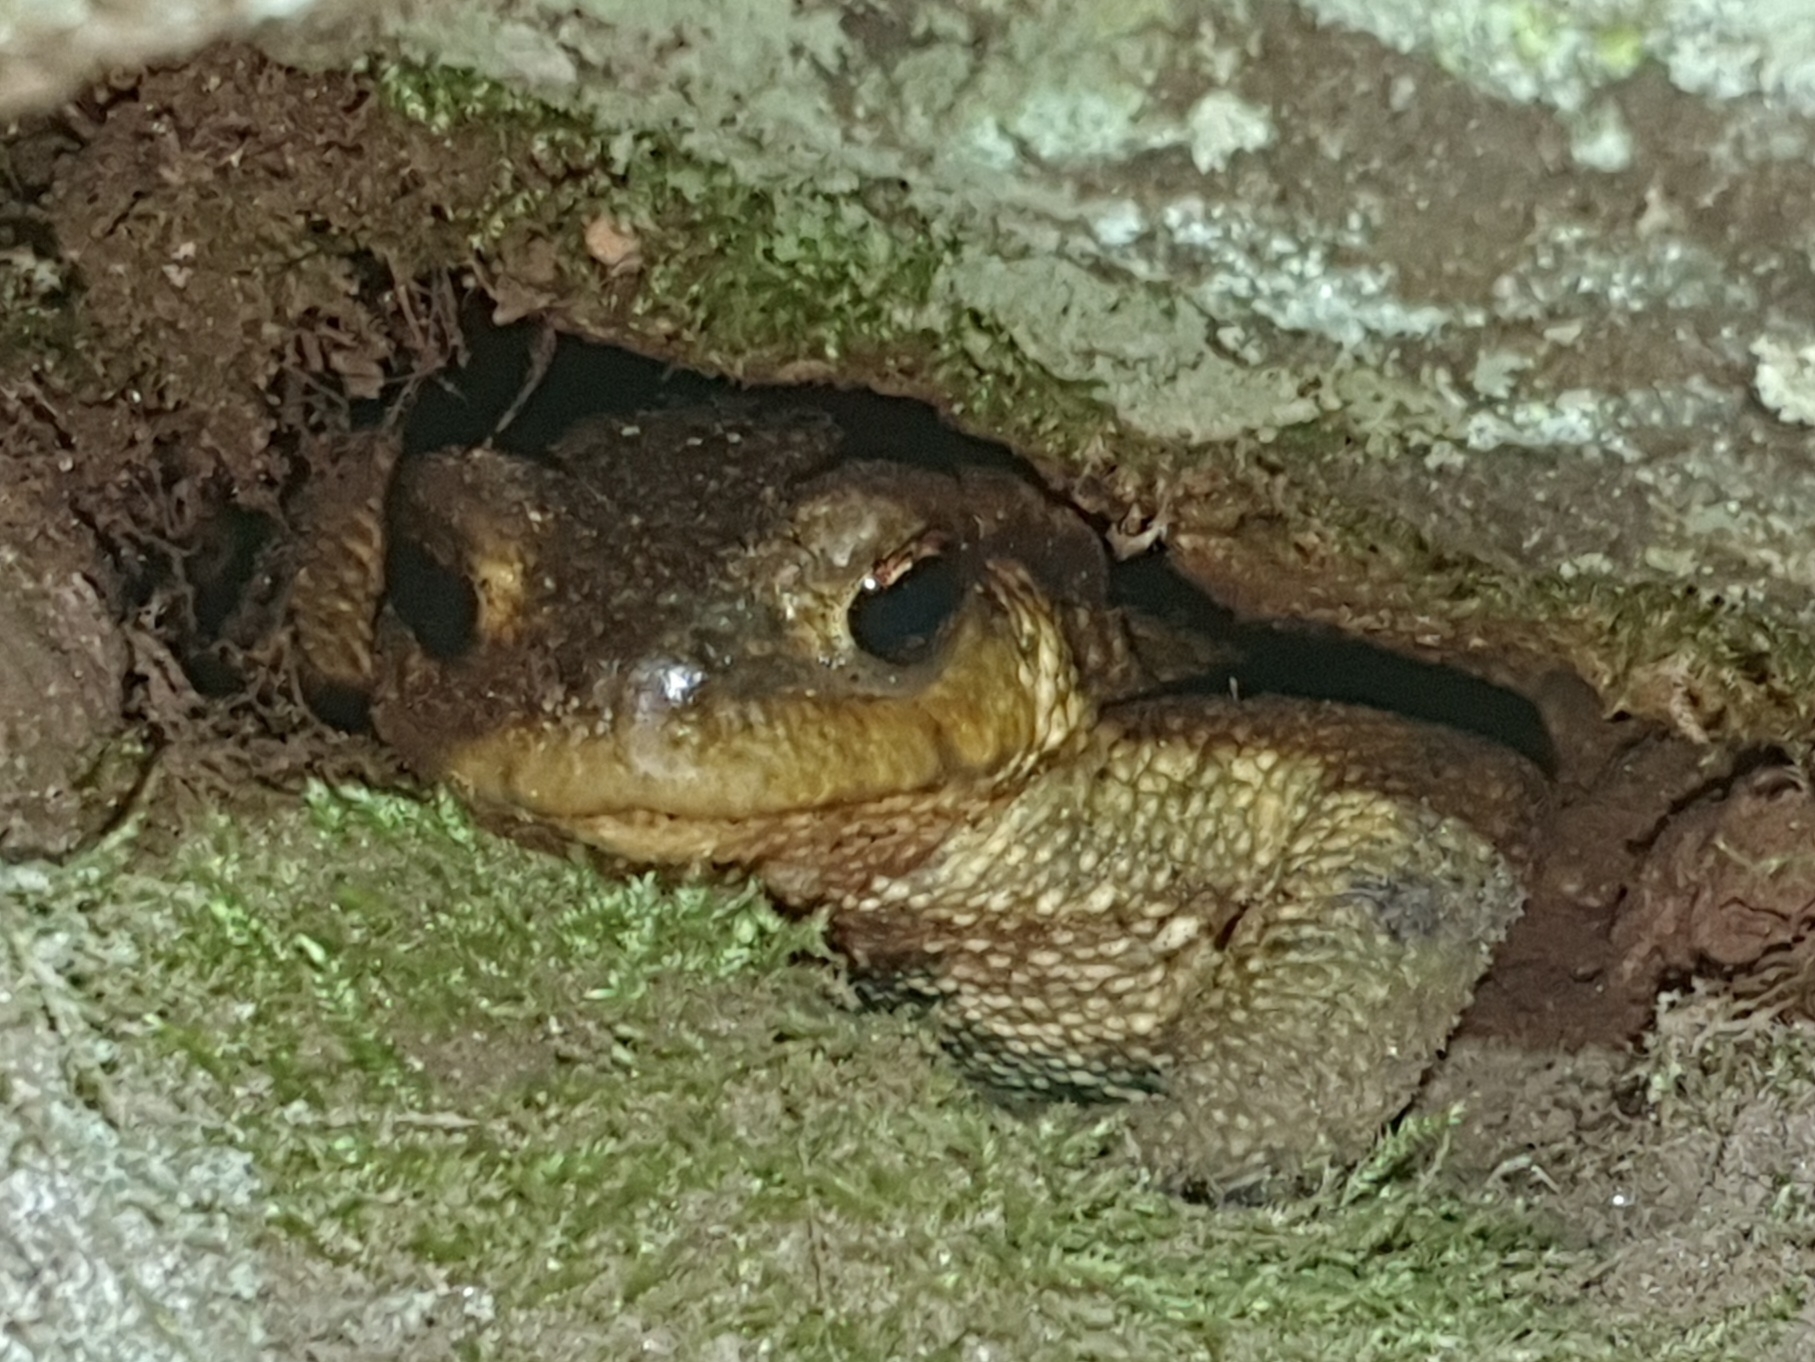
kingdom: Animalia
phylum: Chordata
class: Amphibia
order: Anura
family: Bufonidae
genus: Bufo
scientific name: Bufo spinosus
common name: Western common toad
